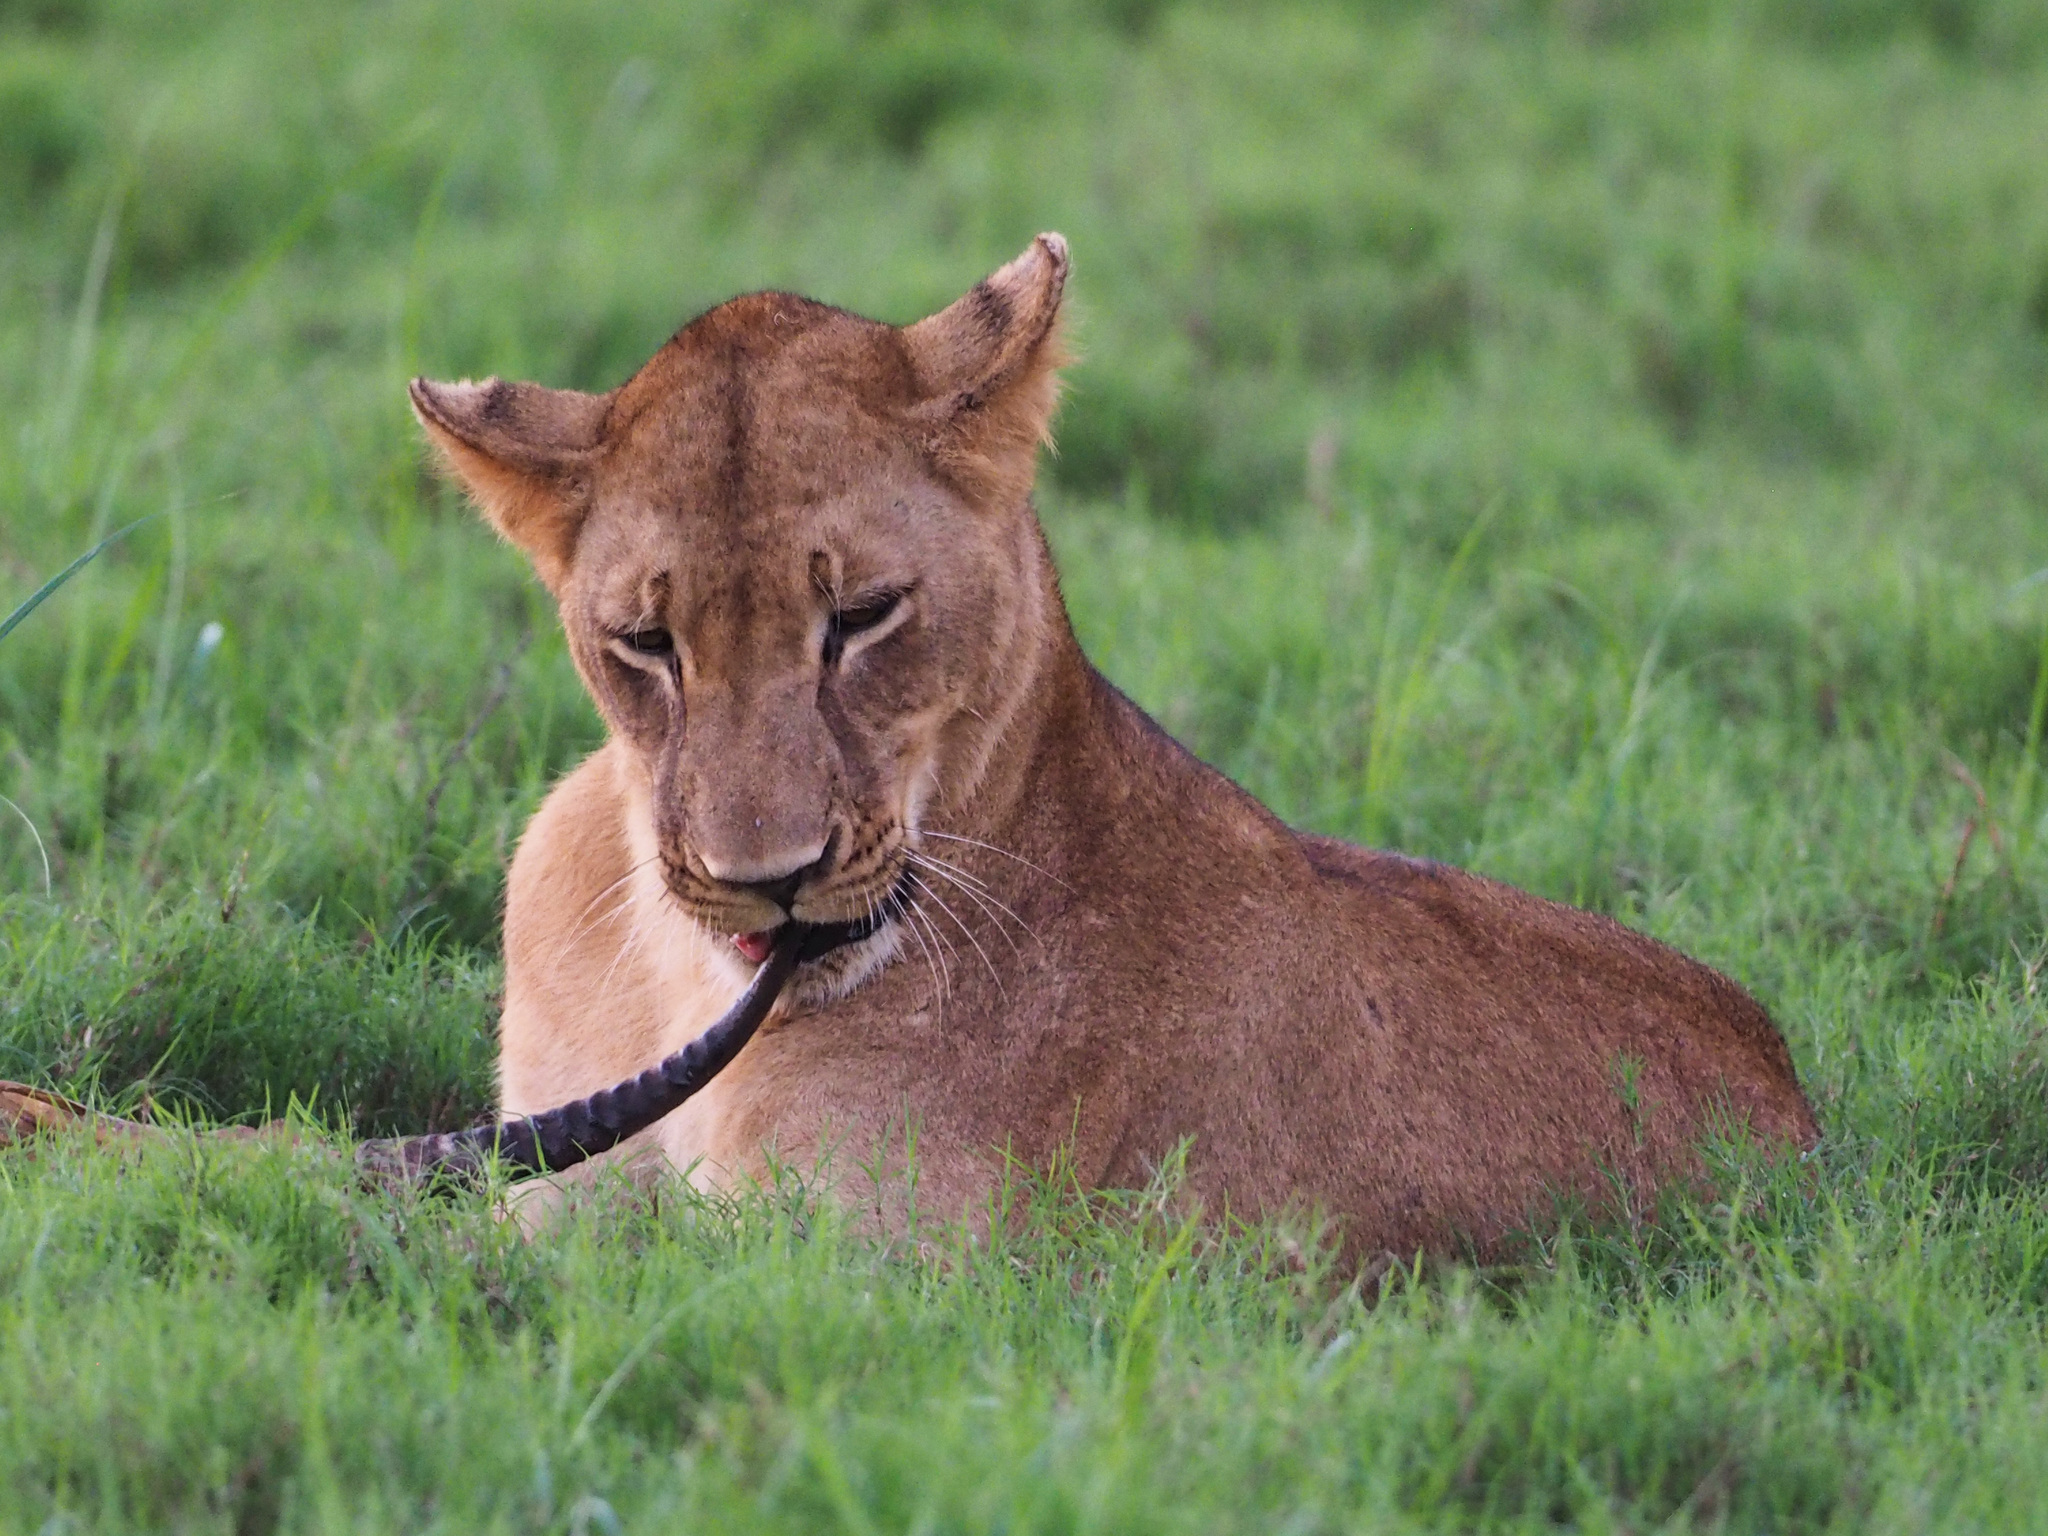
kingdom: Animalia
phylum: Chordata
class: Mammalia
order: Carnivora
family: Felidae
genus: Panthera
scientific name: Panthera leo
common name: Lion
